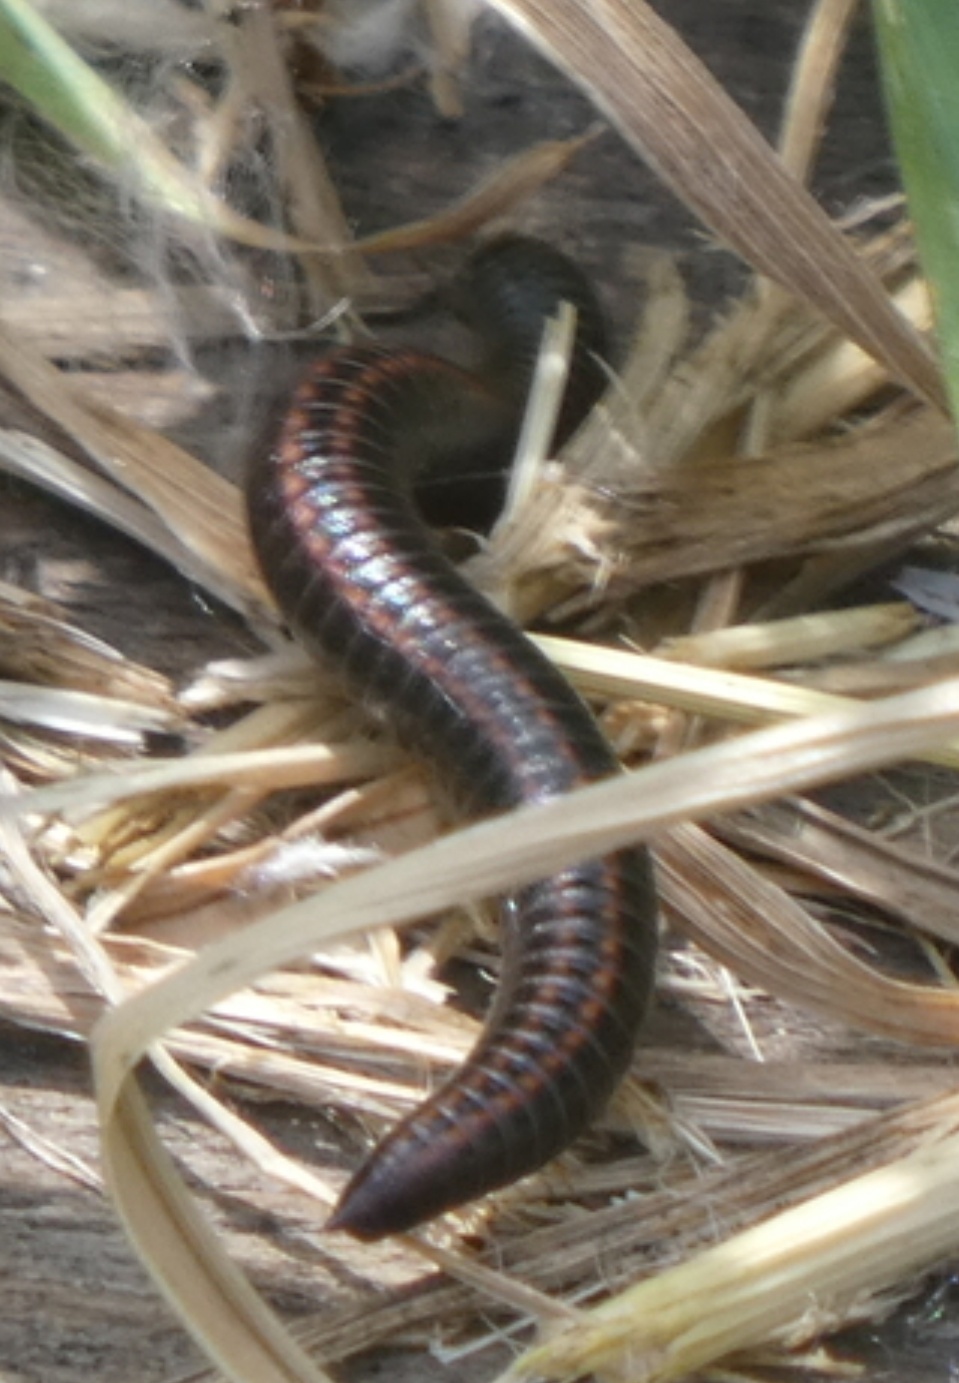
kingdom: Animalia
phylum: Arthropoda
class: Diplopoda
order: Julida
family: Julidae
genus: Ommatoiulus
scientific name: Ommatoiulus sabulosus
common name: Striped millipede
